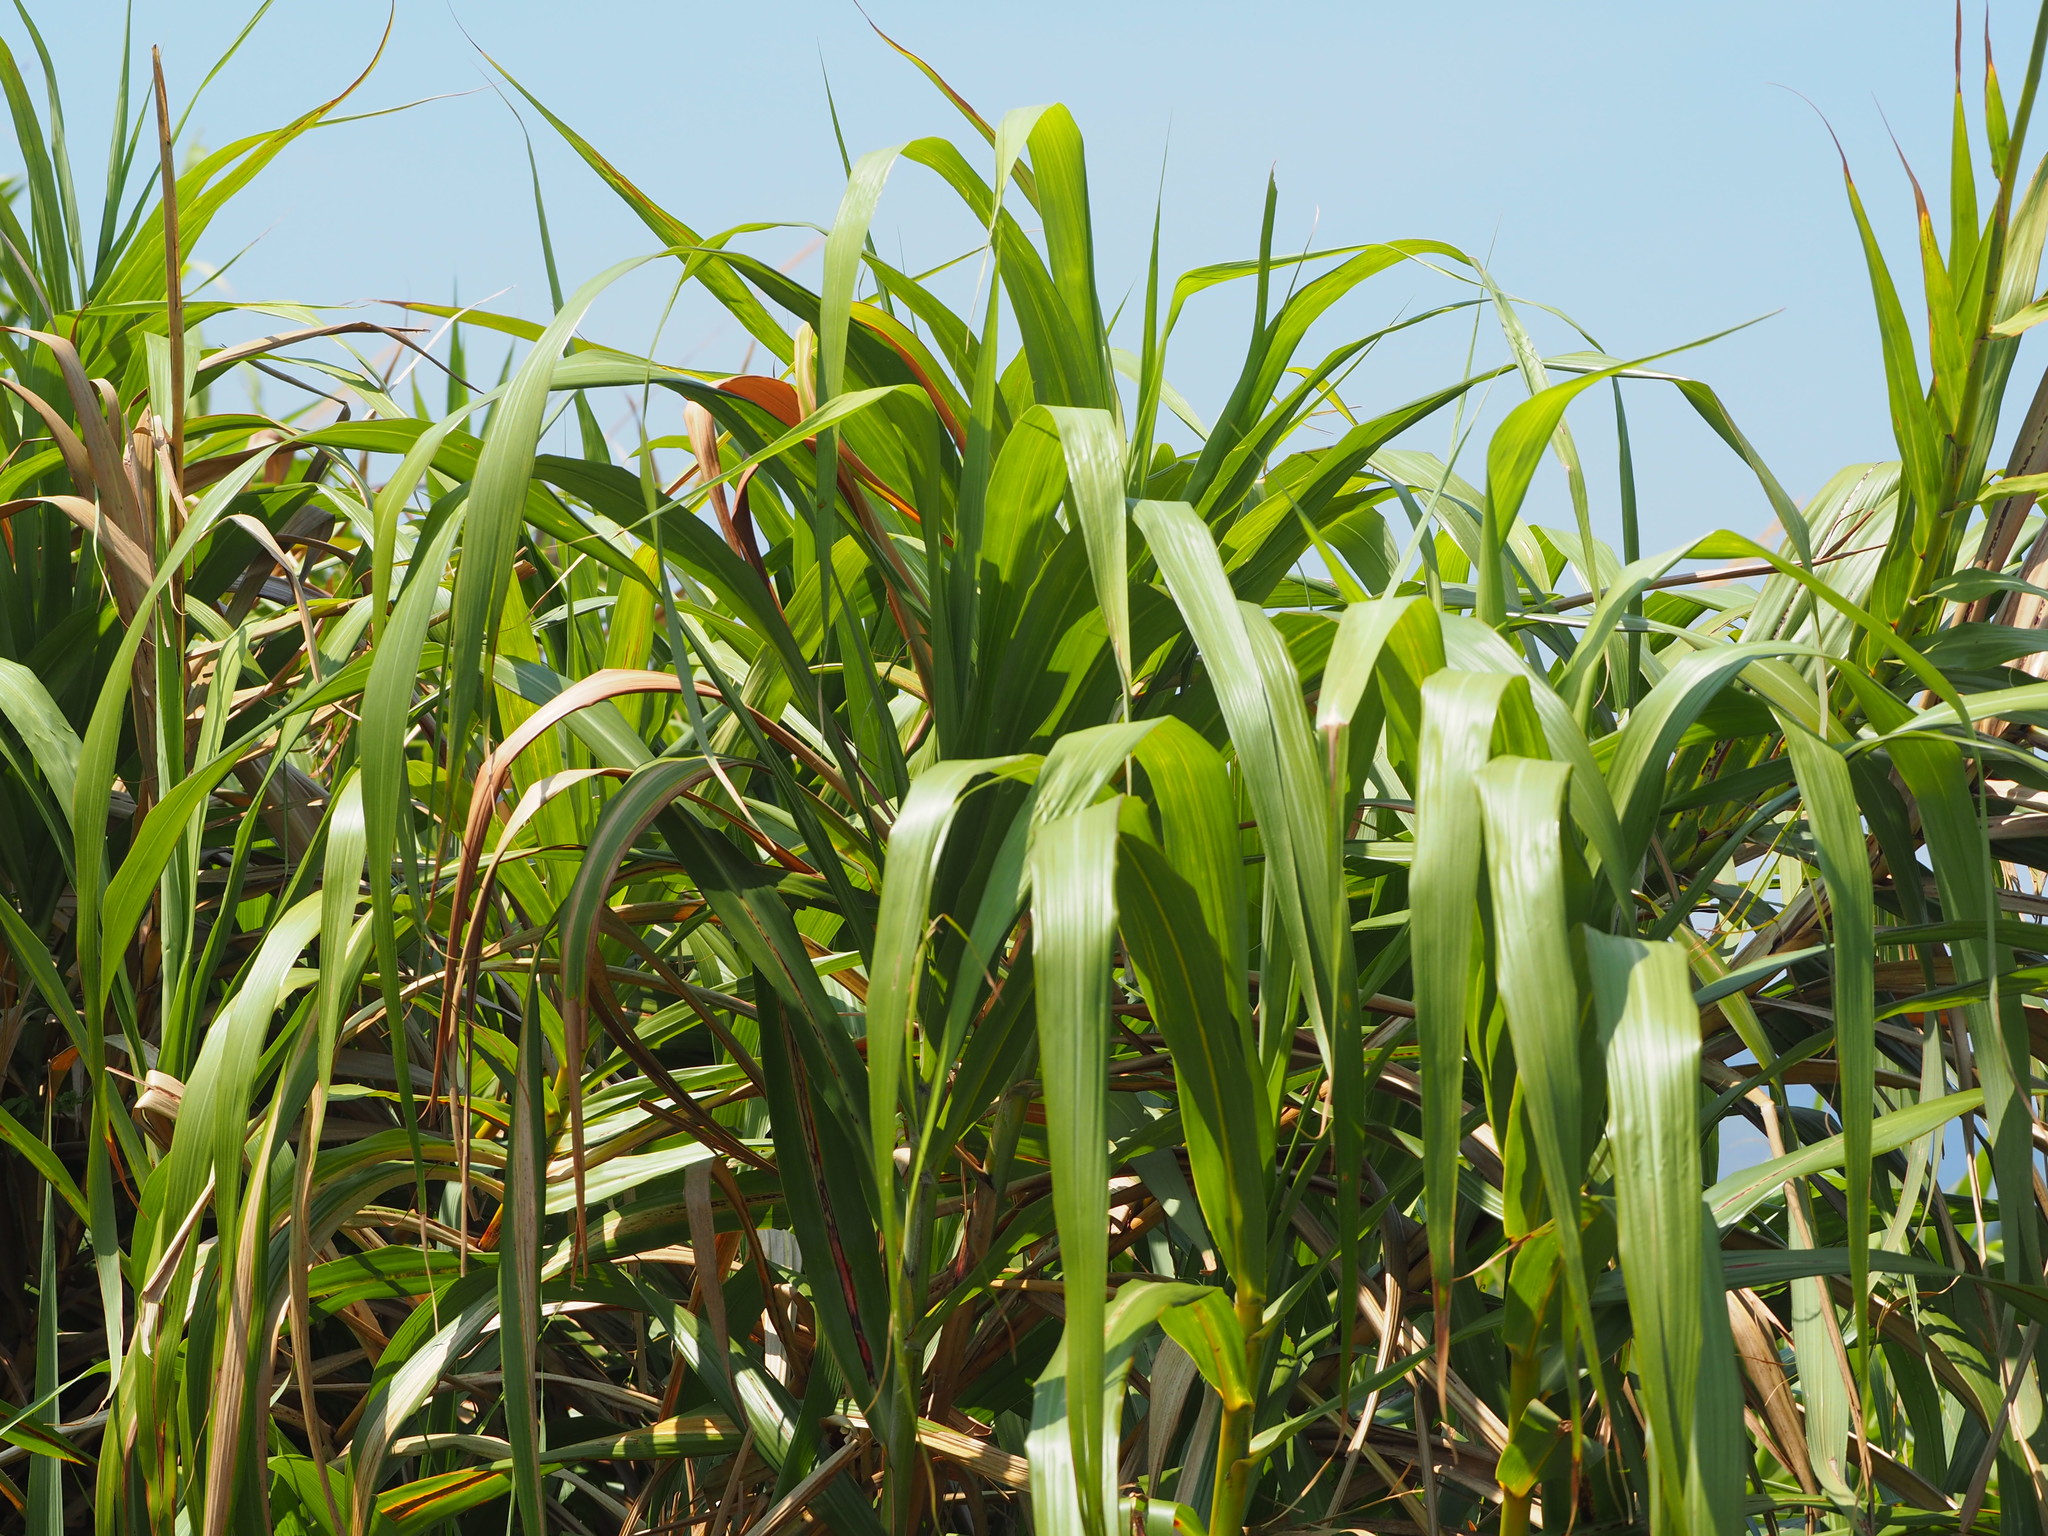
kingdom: Plantae
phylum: Tracheophyta
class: Liliopsida
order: Poales
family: Poaceae
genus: Miscanthus
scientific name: Miscanthus sinensis
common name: Chinese silvergrass
